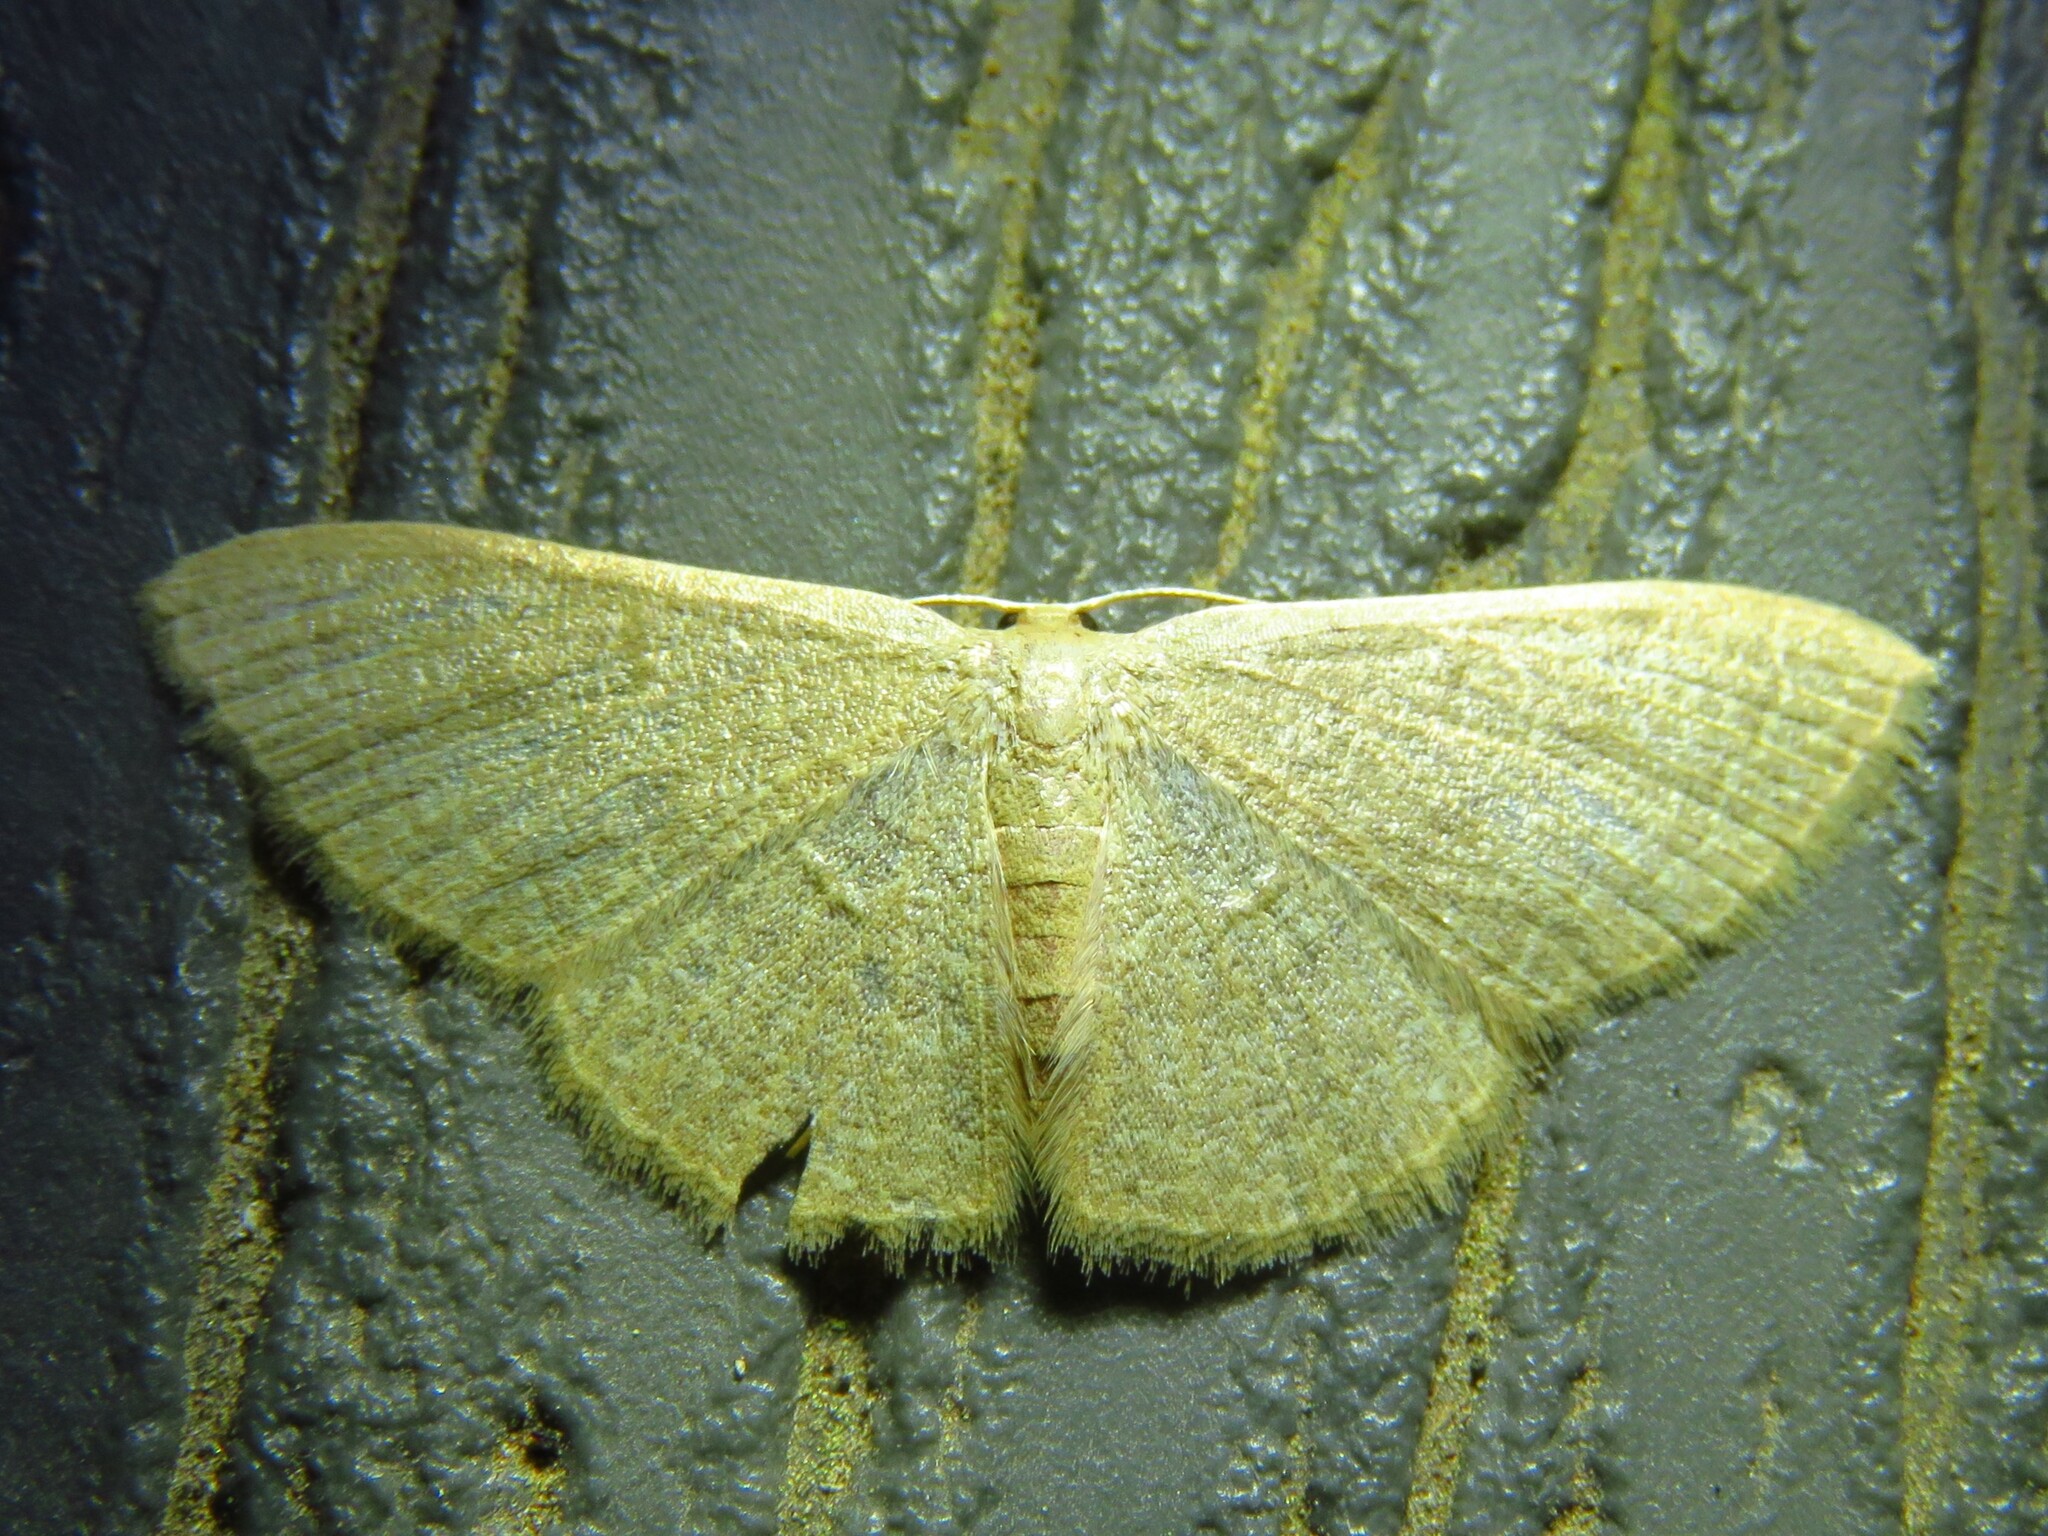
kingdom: Animalia
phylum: Arthropoda
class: Insecta
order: Lepidoptera
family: Geometridae
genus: Pleuroprucha
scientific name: Pleuroprucha insulsaria
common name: Common tan wave
